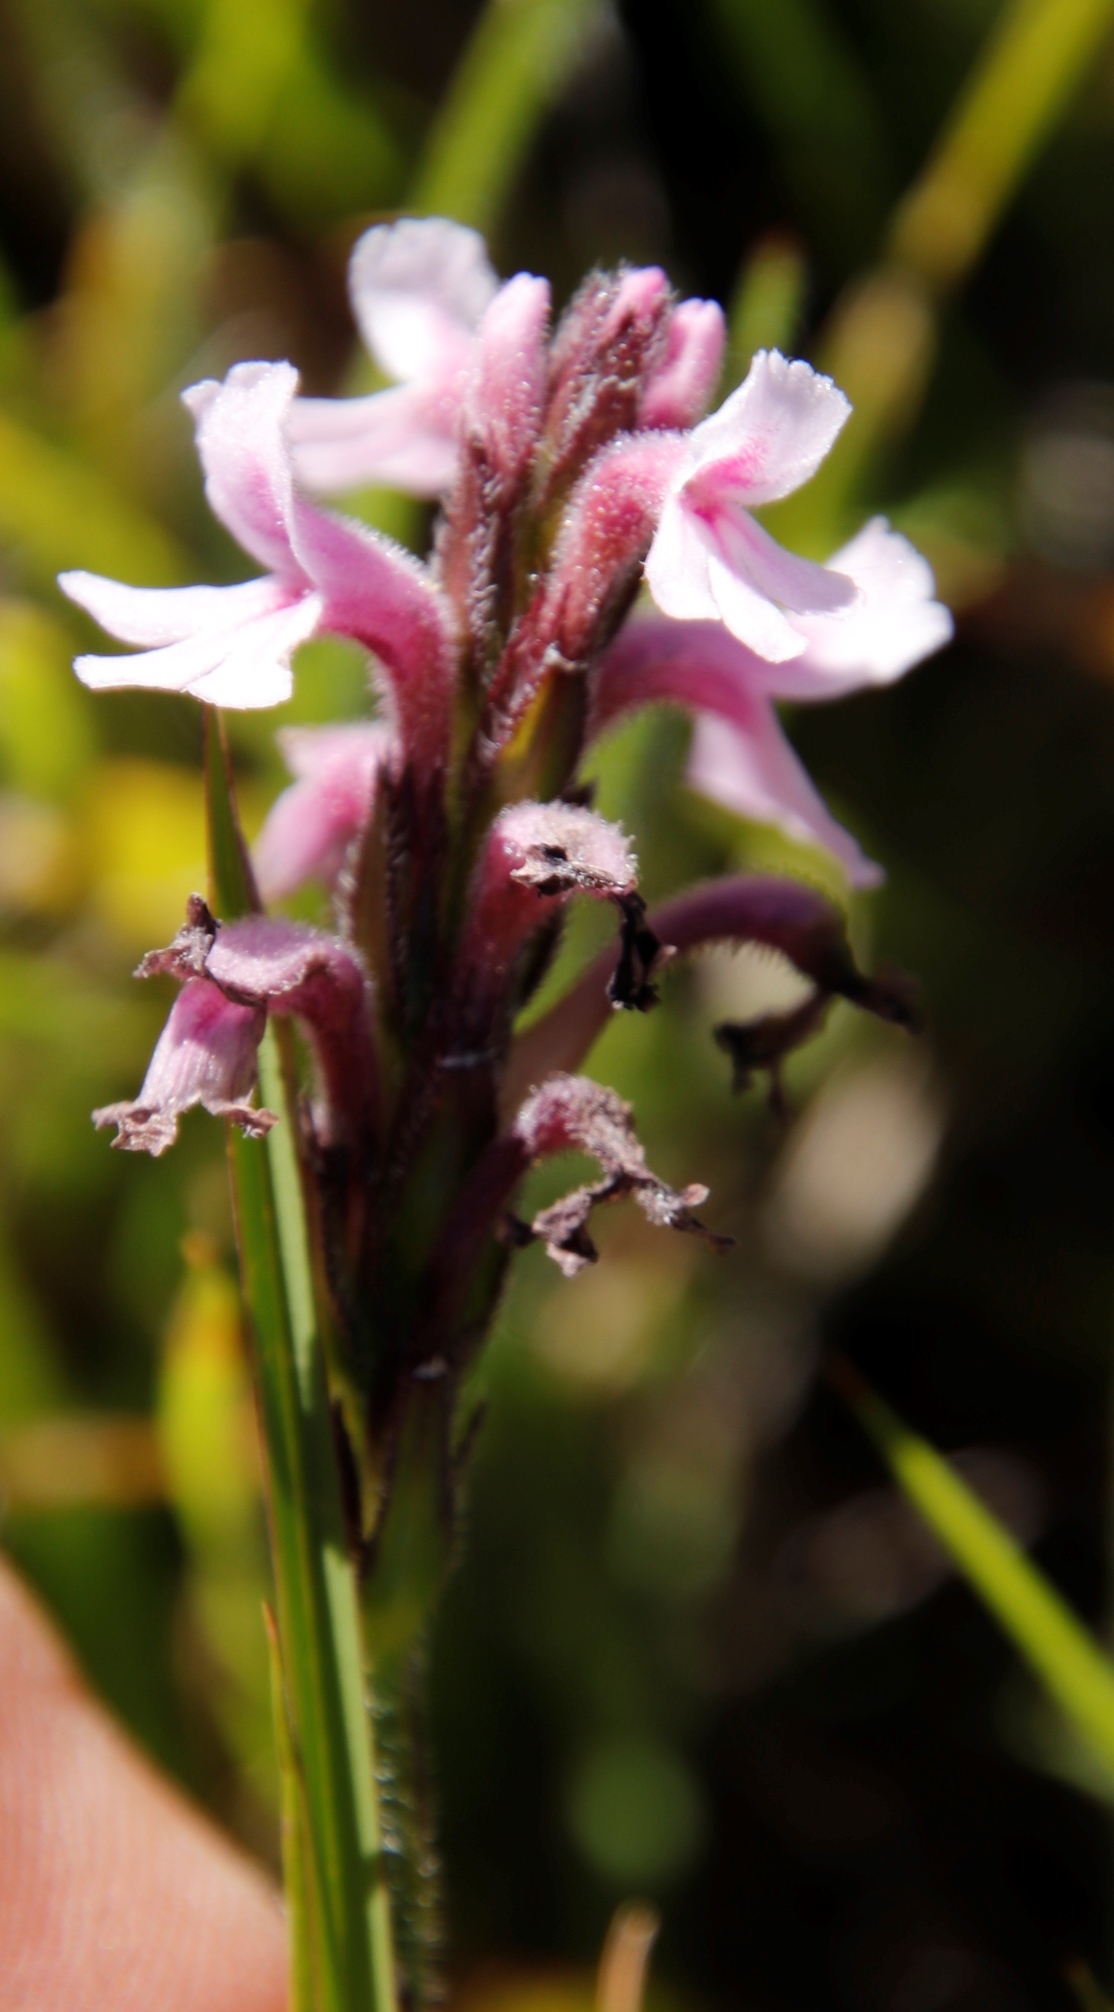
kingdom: Plantae
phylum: Tracheophyta
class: Magnoliopsida
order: Lamiales
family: Orobanchaceae
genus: Striga
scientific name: Striga bilabiata
